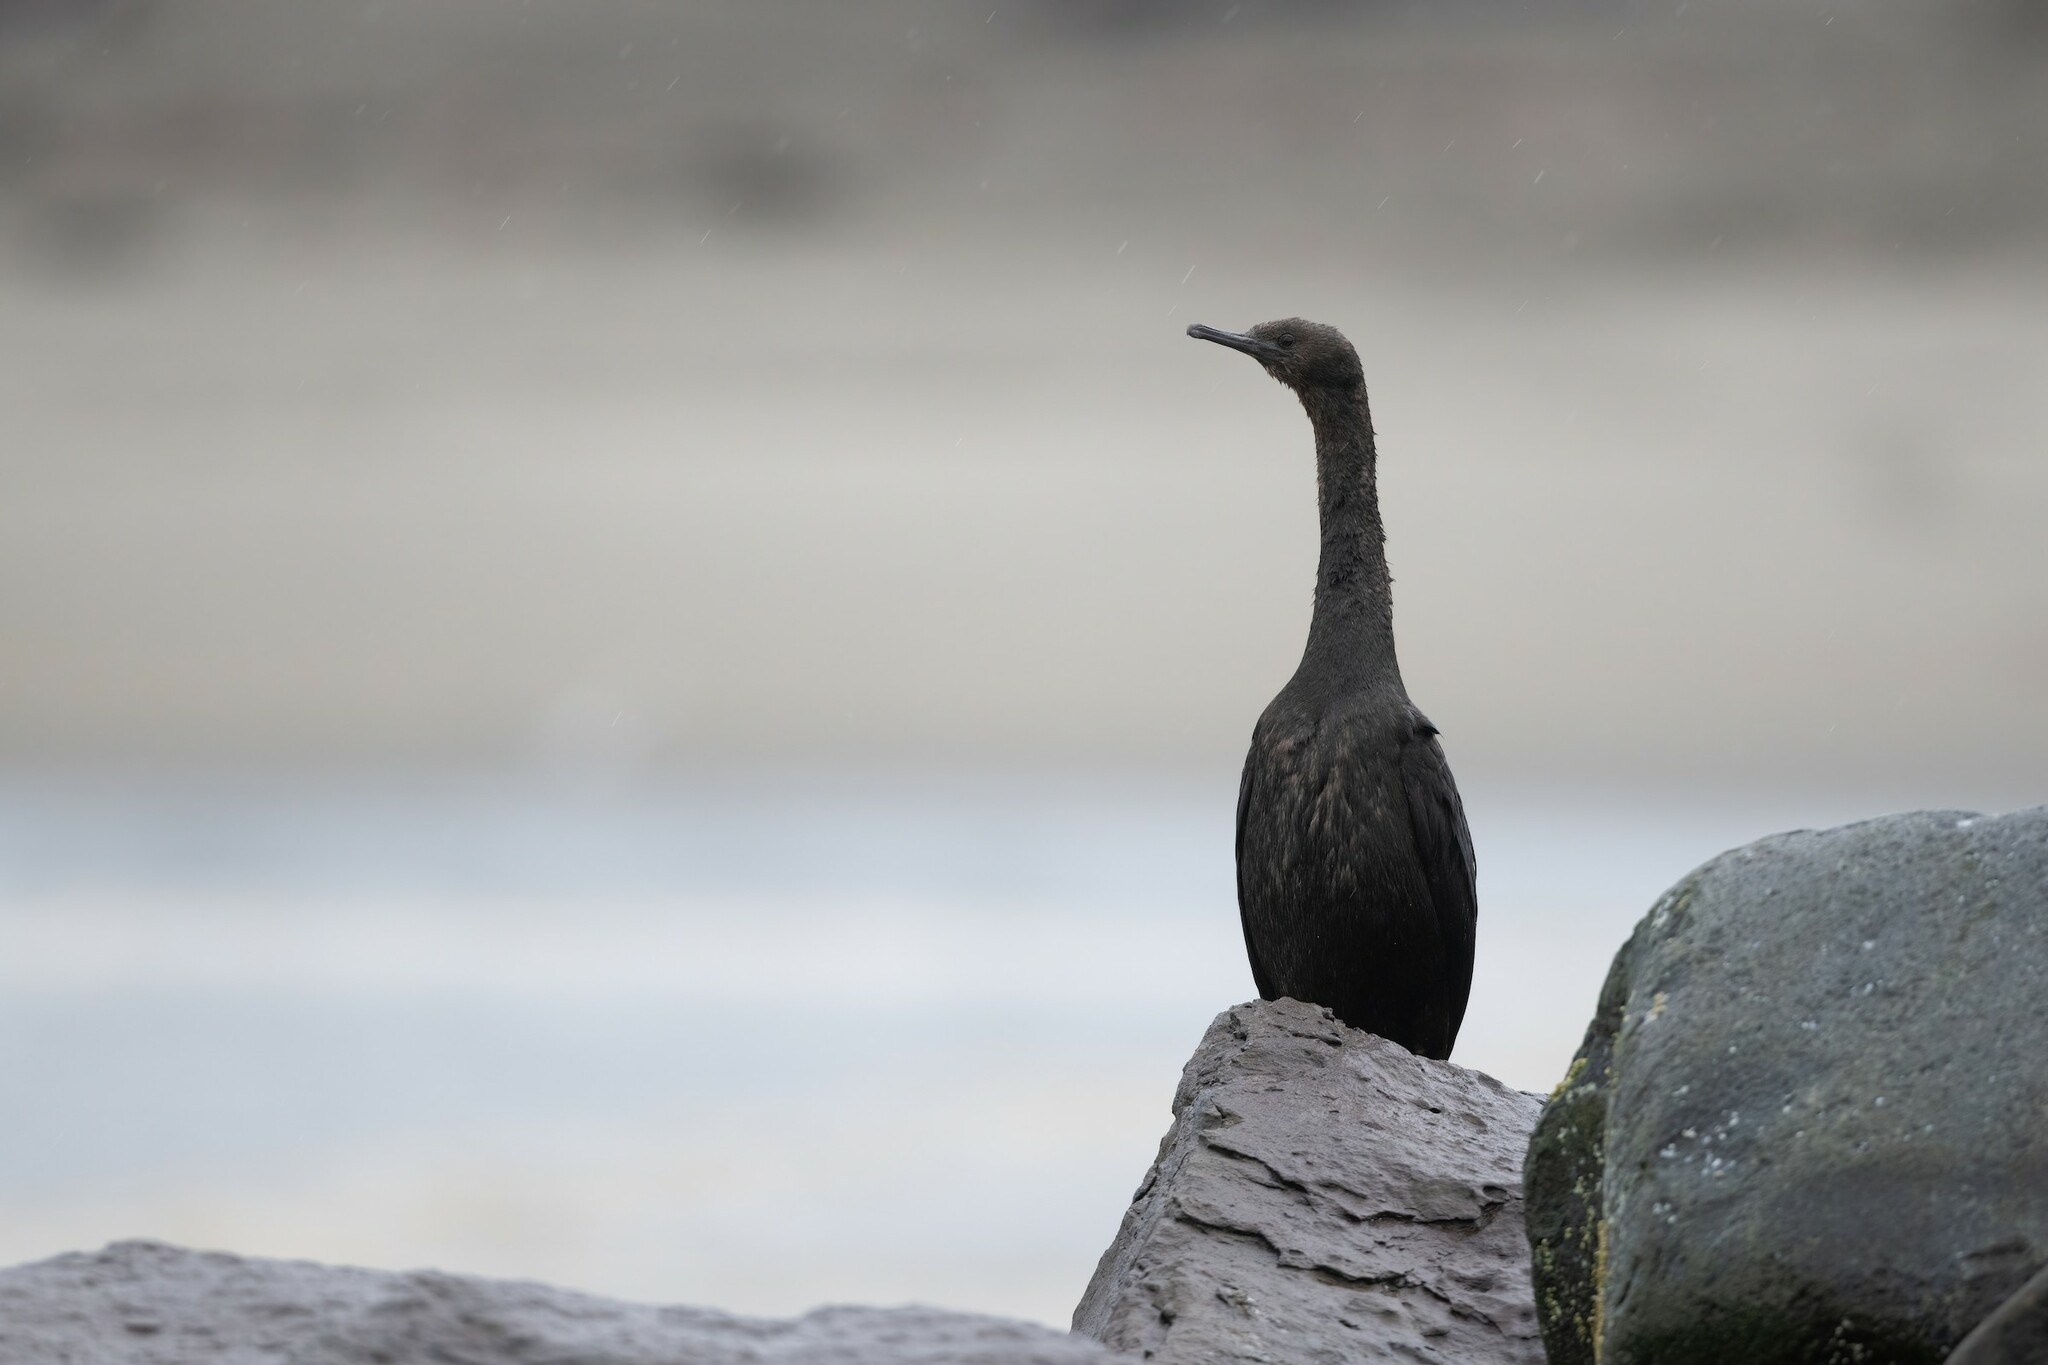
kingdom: Animalia
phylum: Chordata
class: Aves
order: Suliformes
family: Phalacrocoracidae
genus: Phalacrocorax
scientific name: Phalacrocorax pelagicus
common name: Pelagic cormorant
